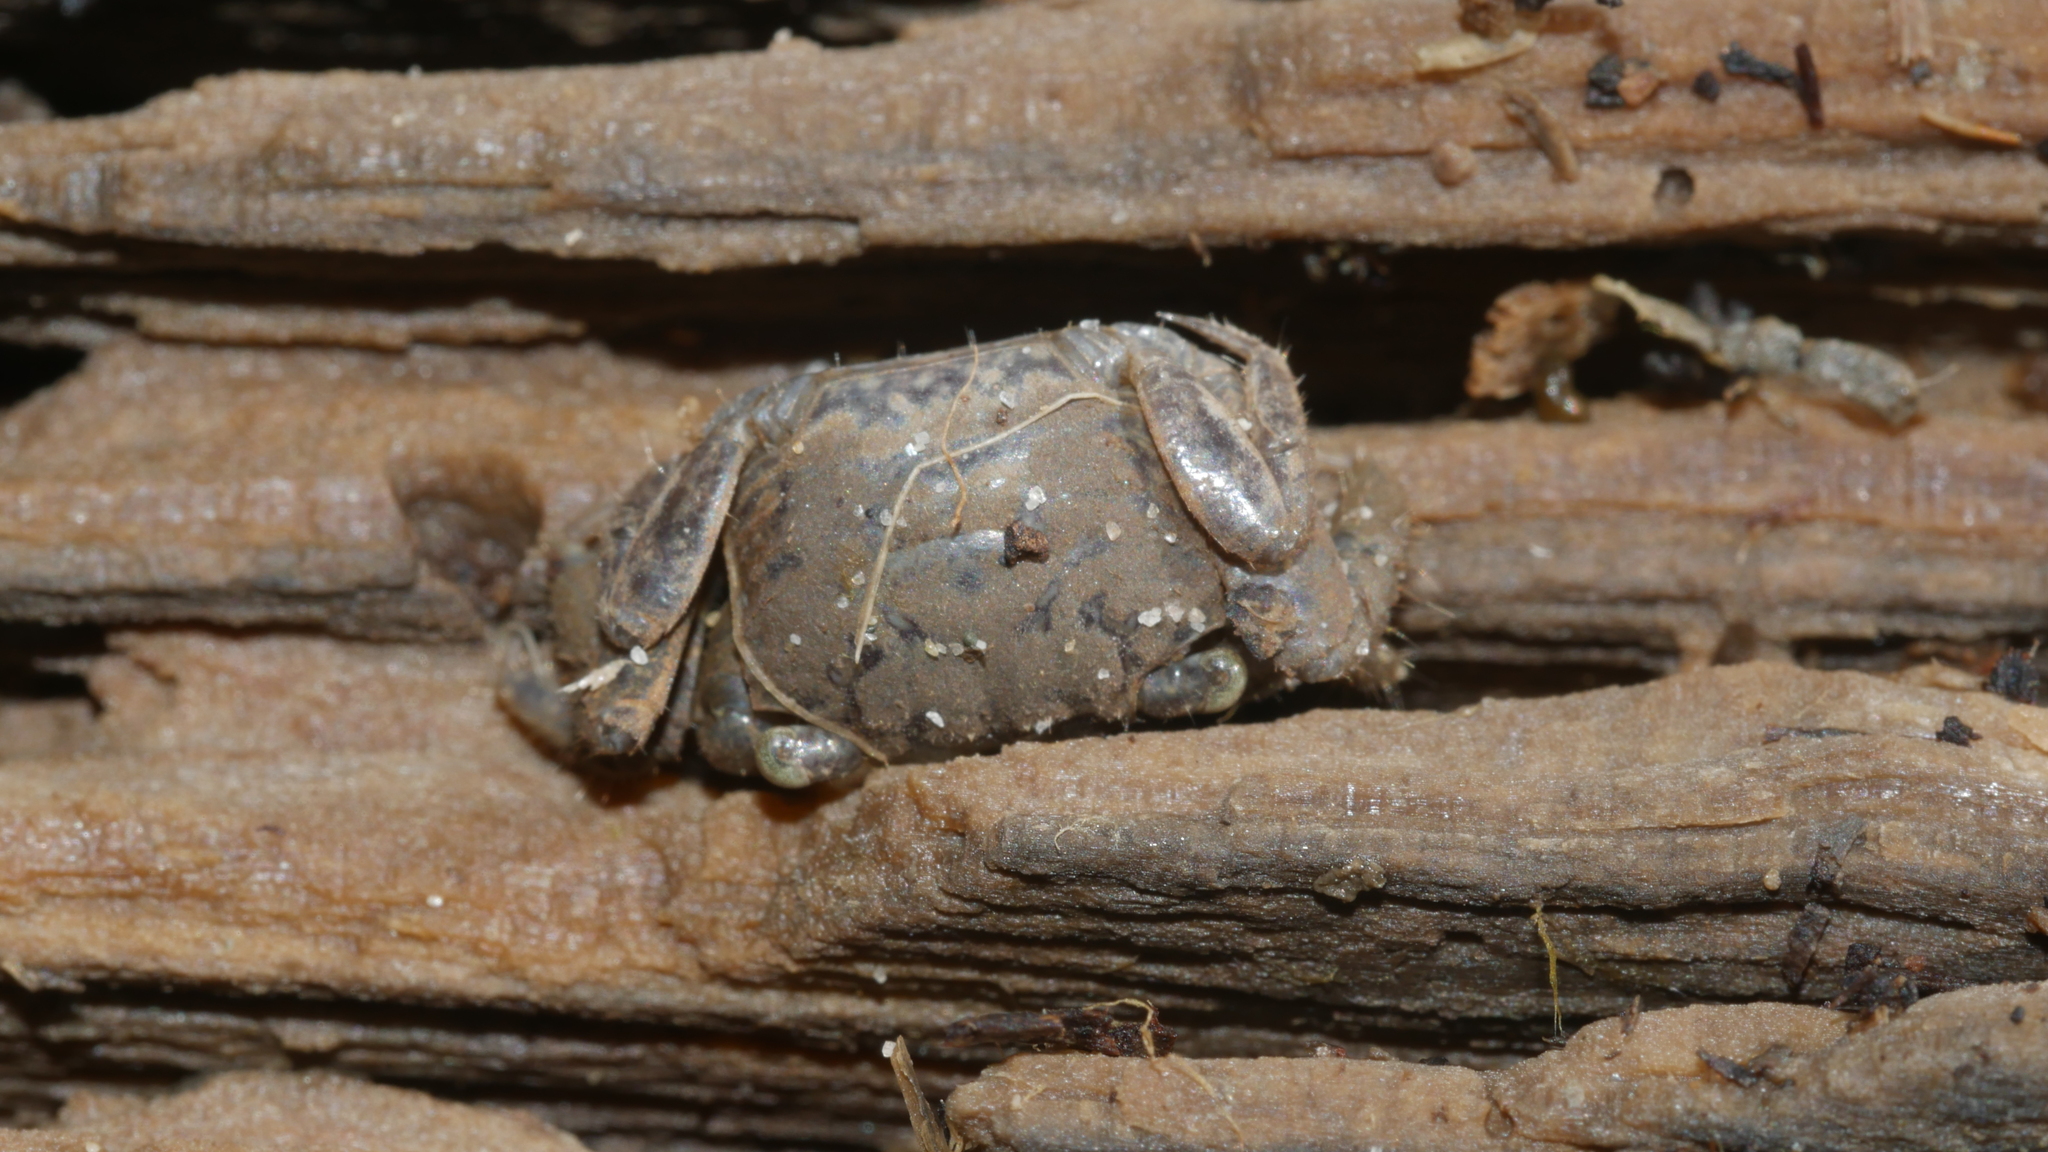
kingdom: Animalia
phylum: Arthropoda
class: Malacostraca
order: Decapoda
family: Sesarmidae
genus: Armases
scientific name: Armases cinereum
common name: Squareback marsh crab
